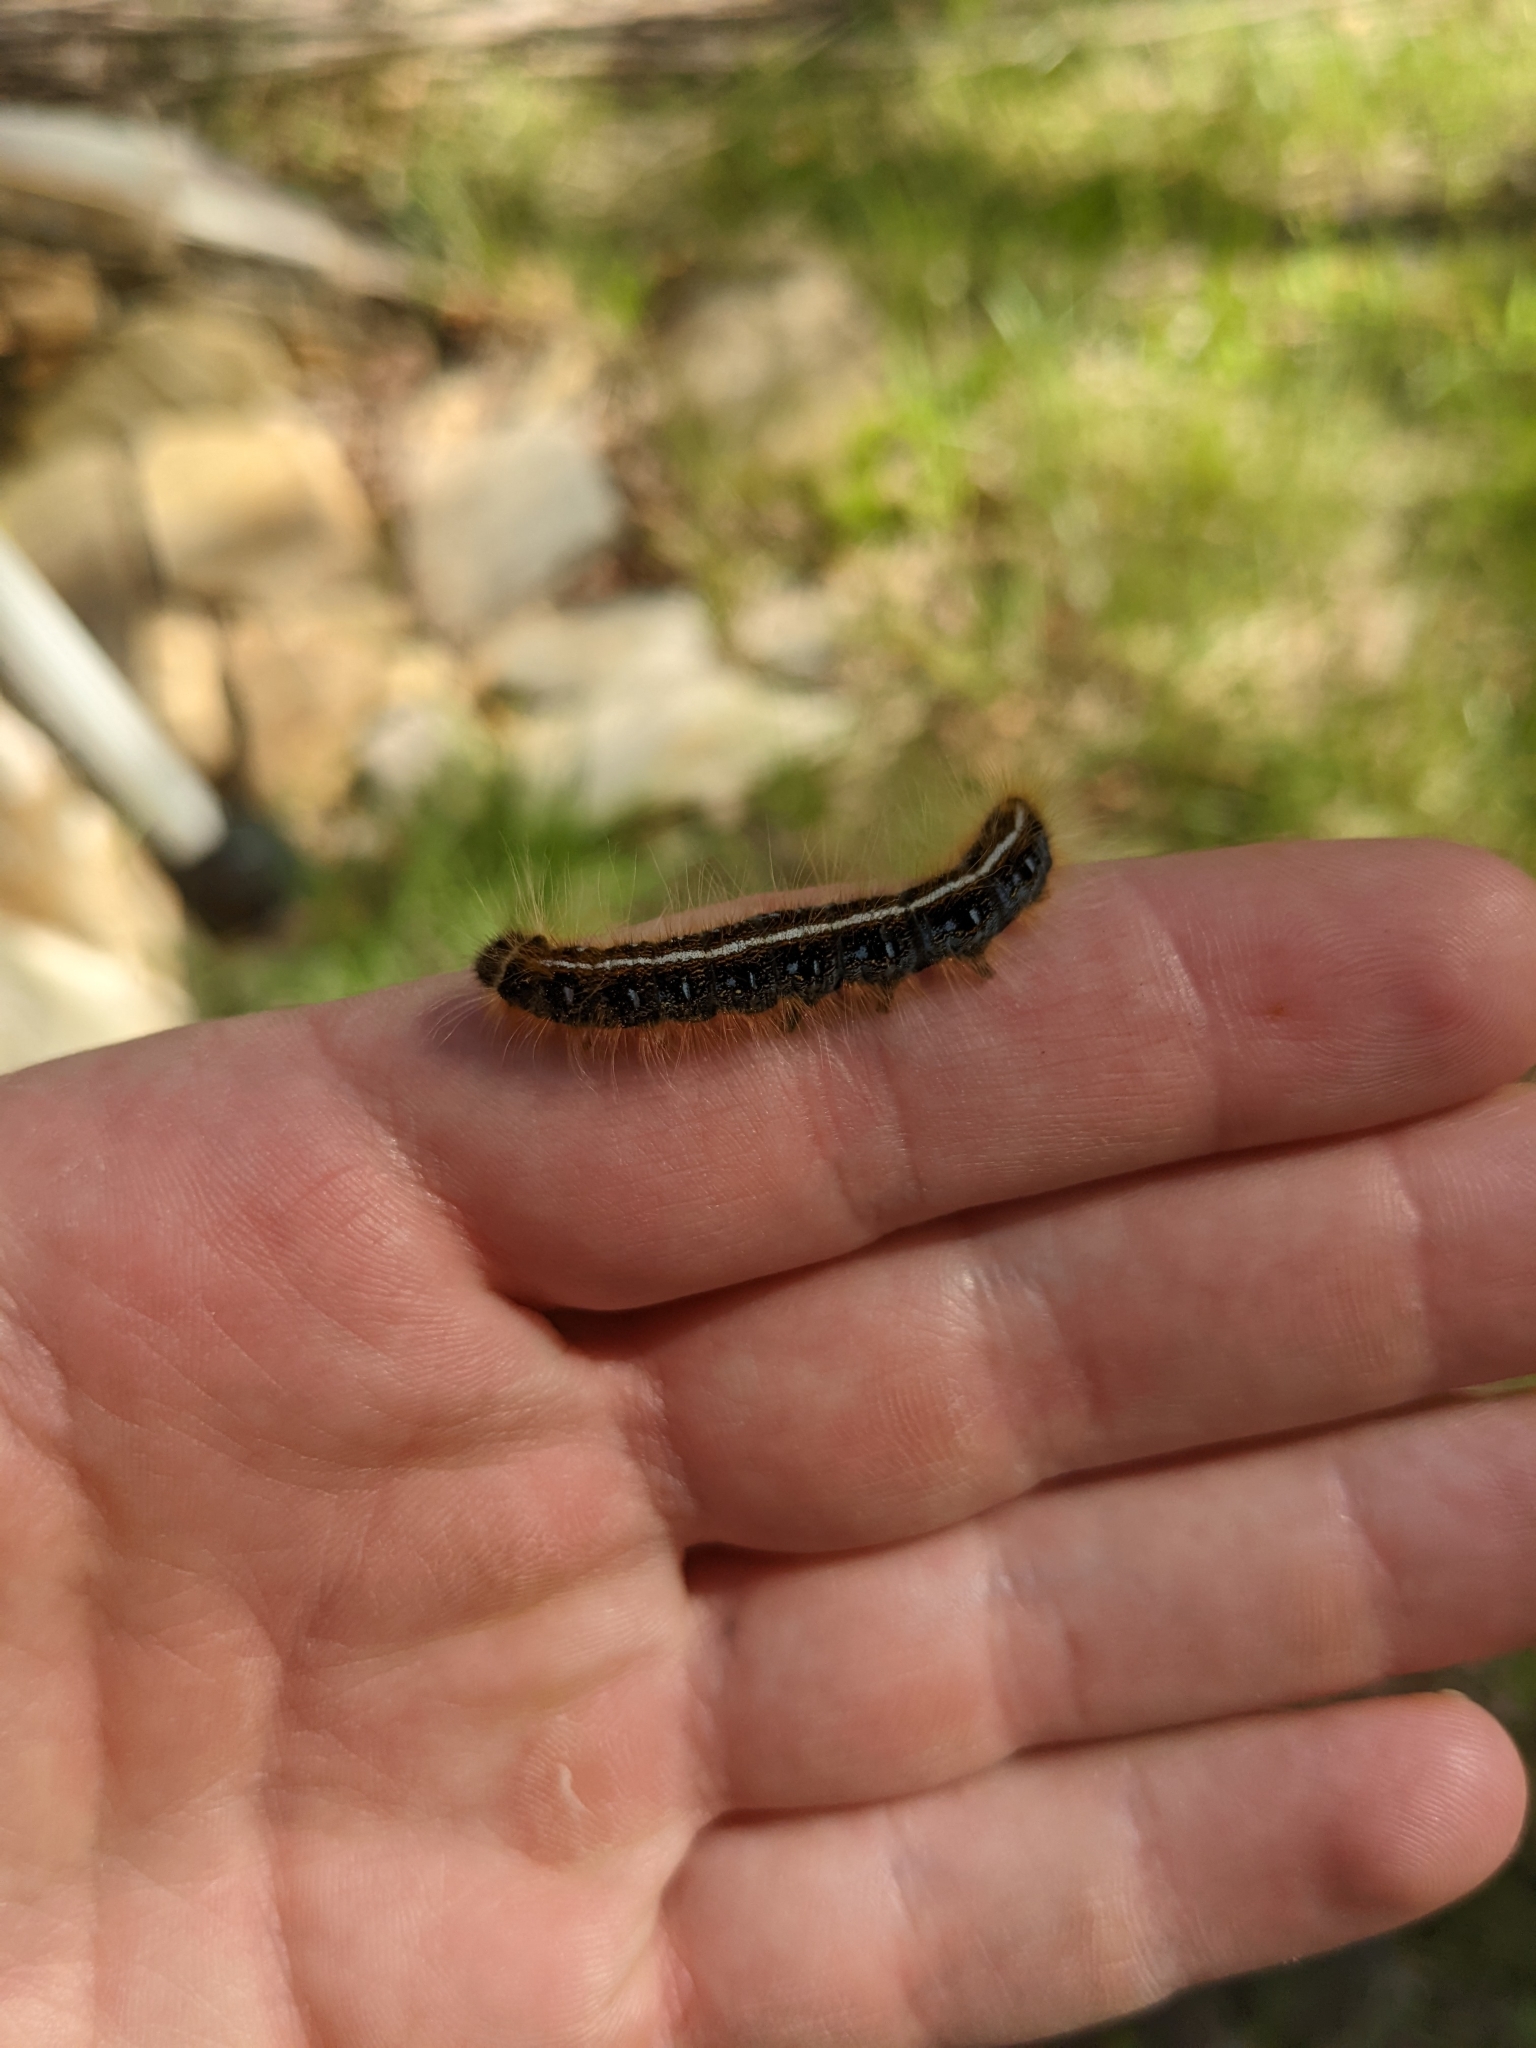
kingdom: Animalia
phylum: Arthropoda
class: Insecta
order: Lepidoptera
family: Lasiocampidae
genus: Malacosoma
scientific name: Malacosoma americana
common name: Eastern tent caterpillar moth
